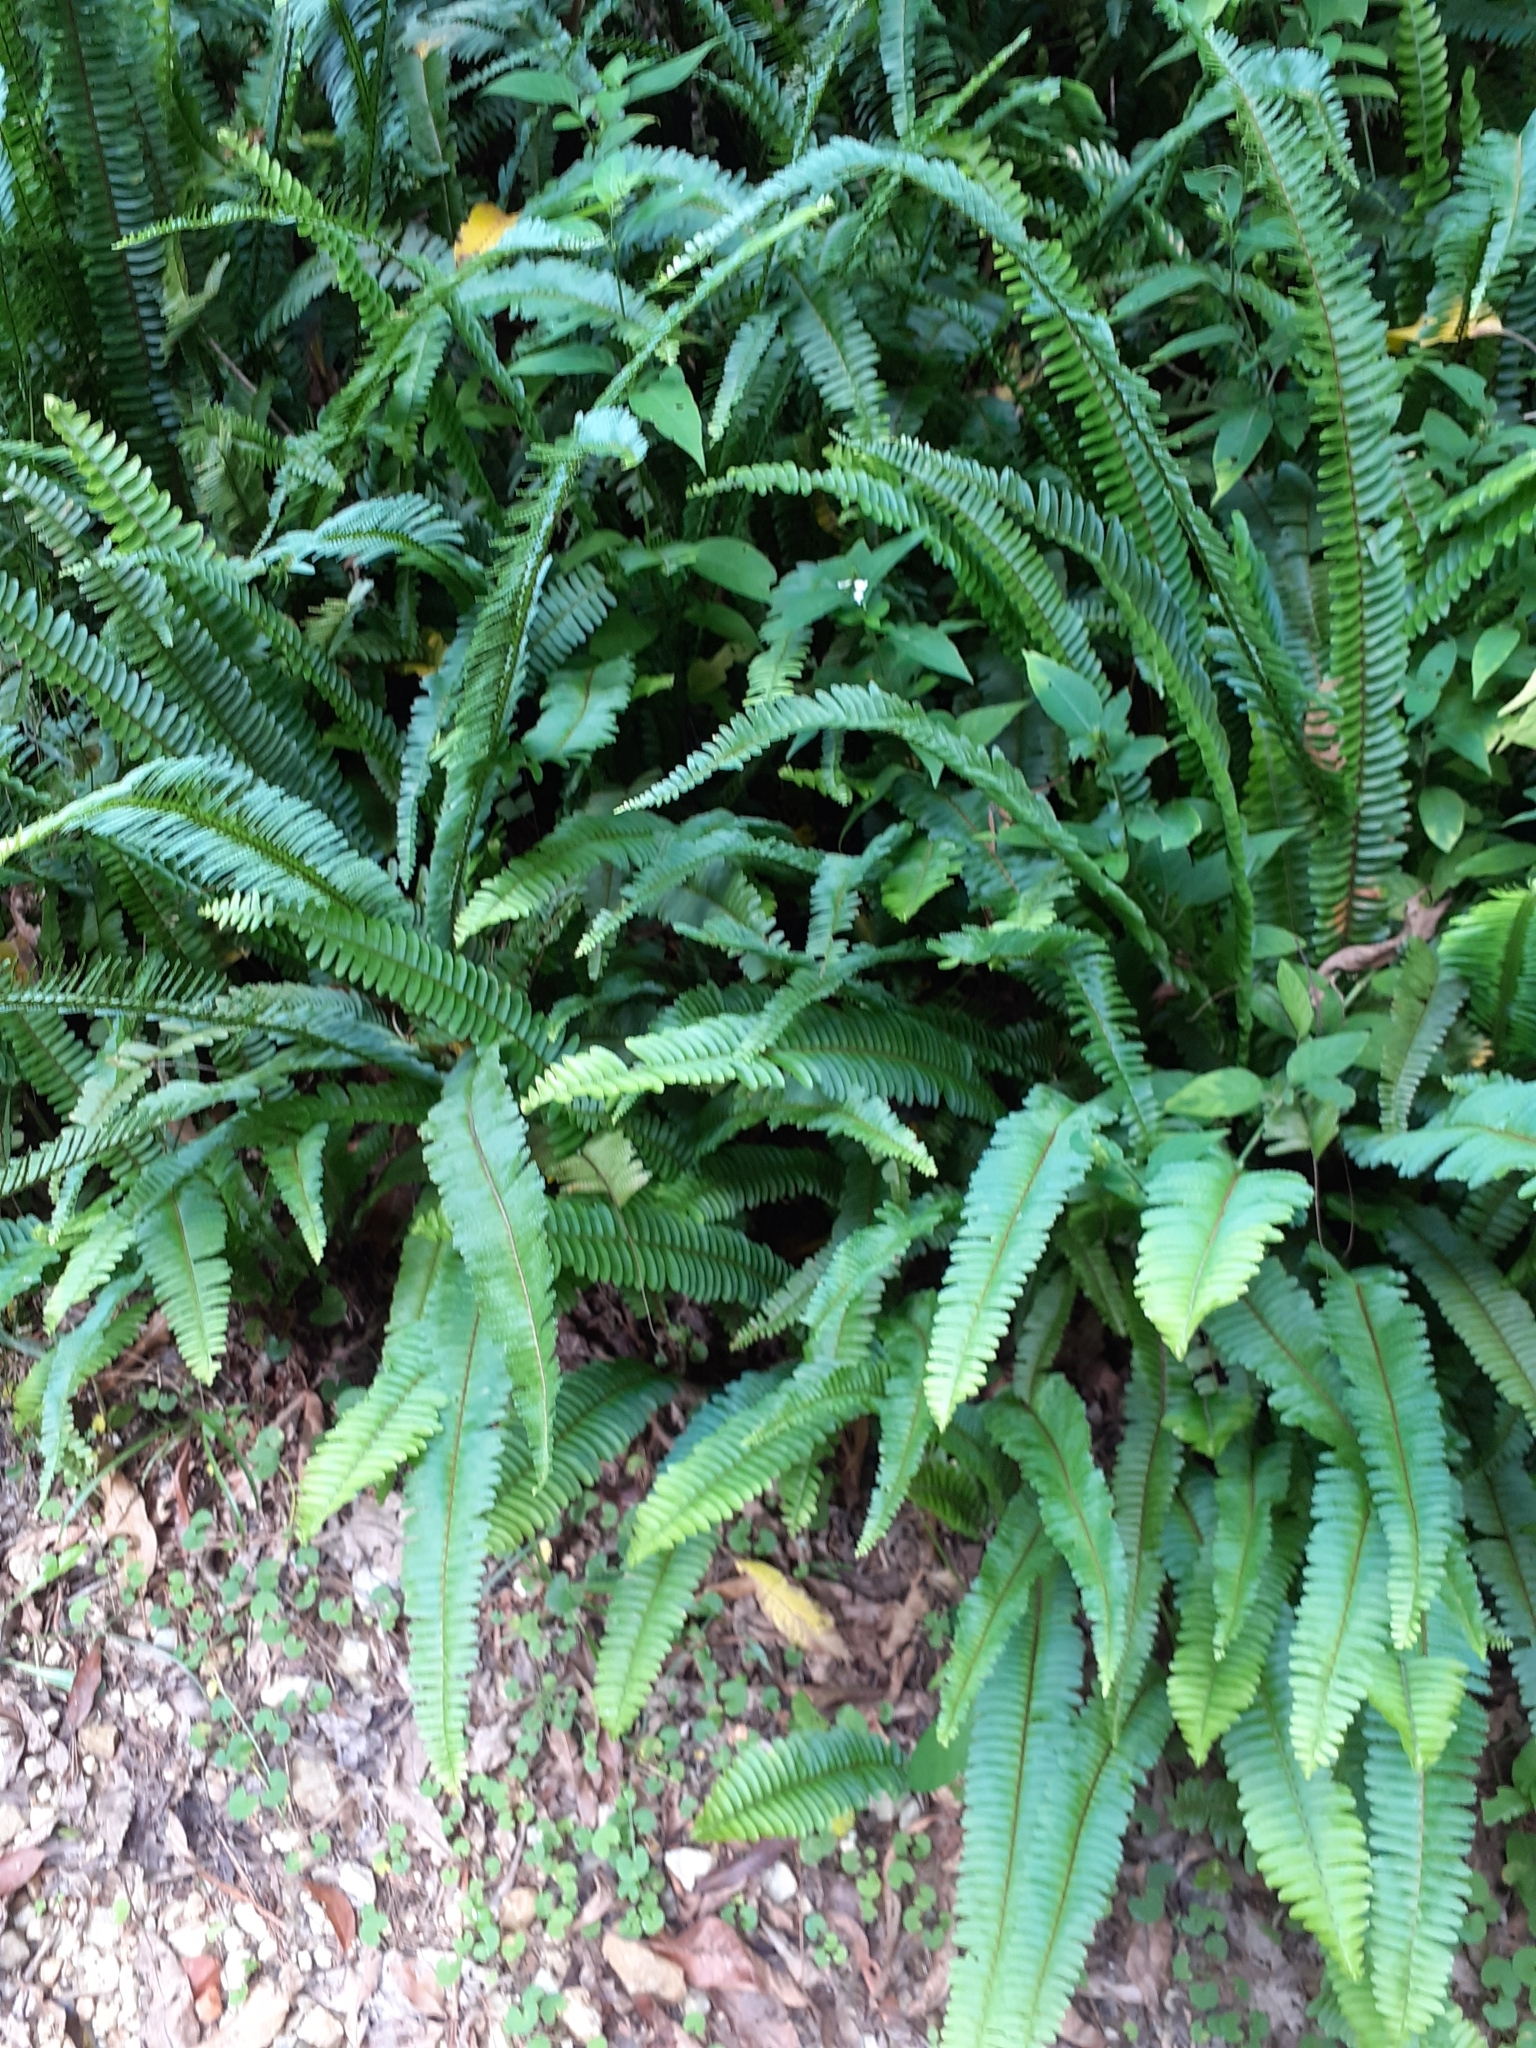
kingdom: Plantae
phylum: Tracheophyta
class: Polypodiopsida
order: Polypodiales
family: Nephrolepidaceae
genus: Nephrolepis
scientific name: Nephrolepis cordifolia
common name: Narrow swordfern
